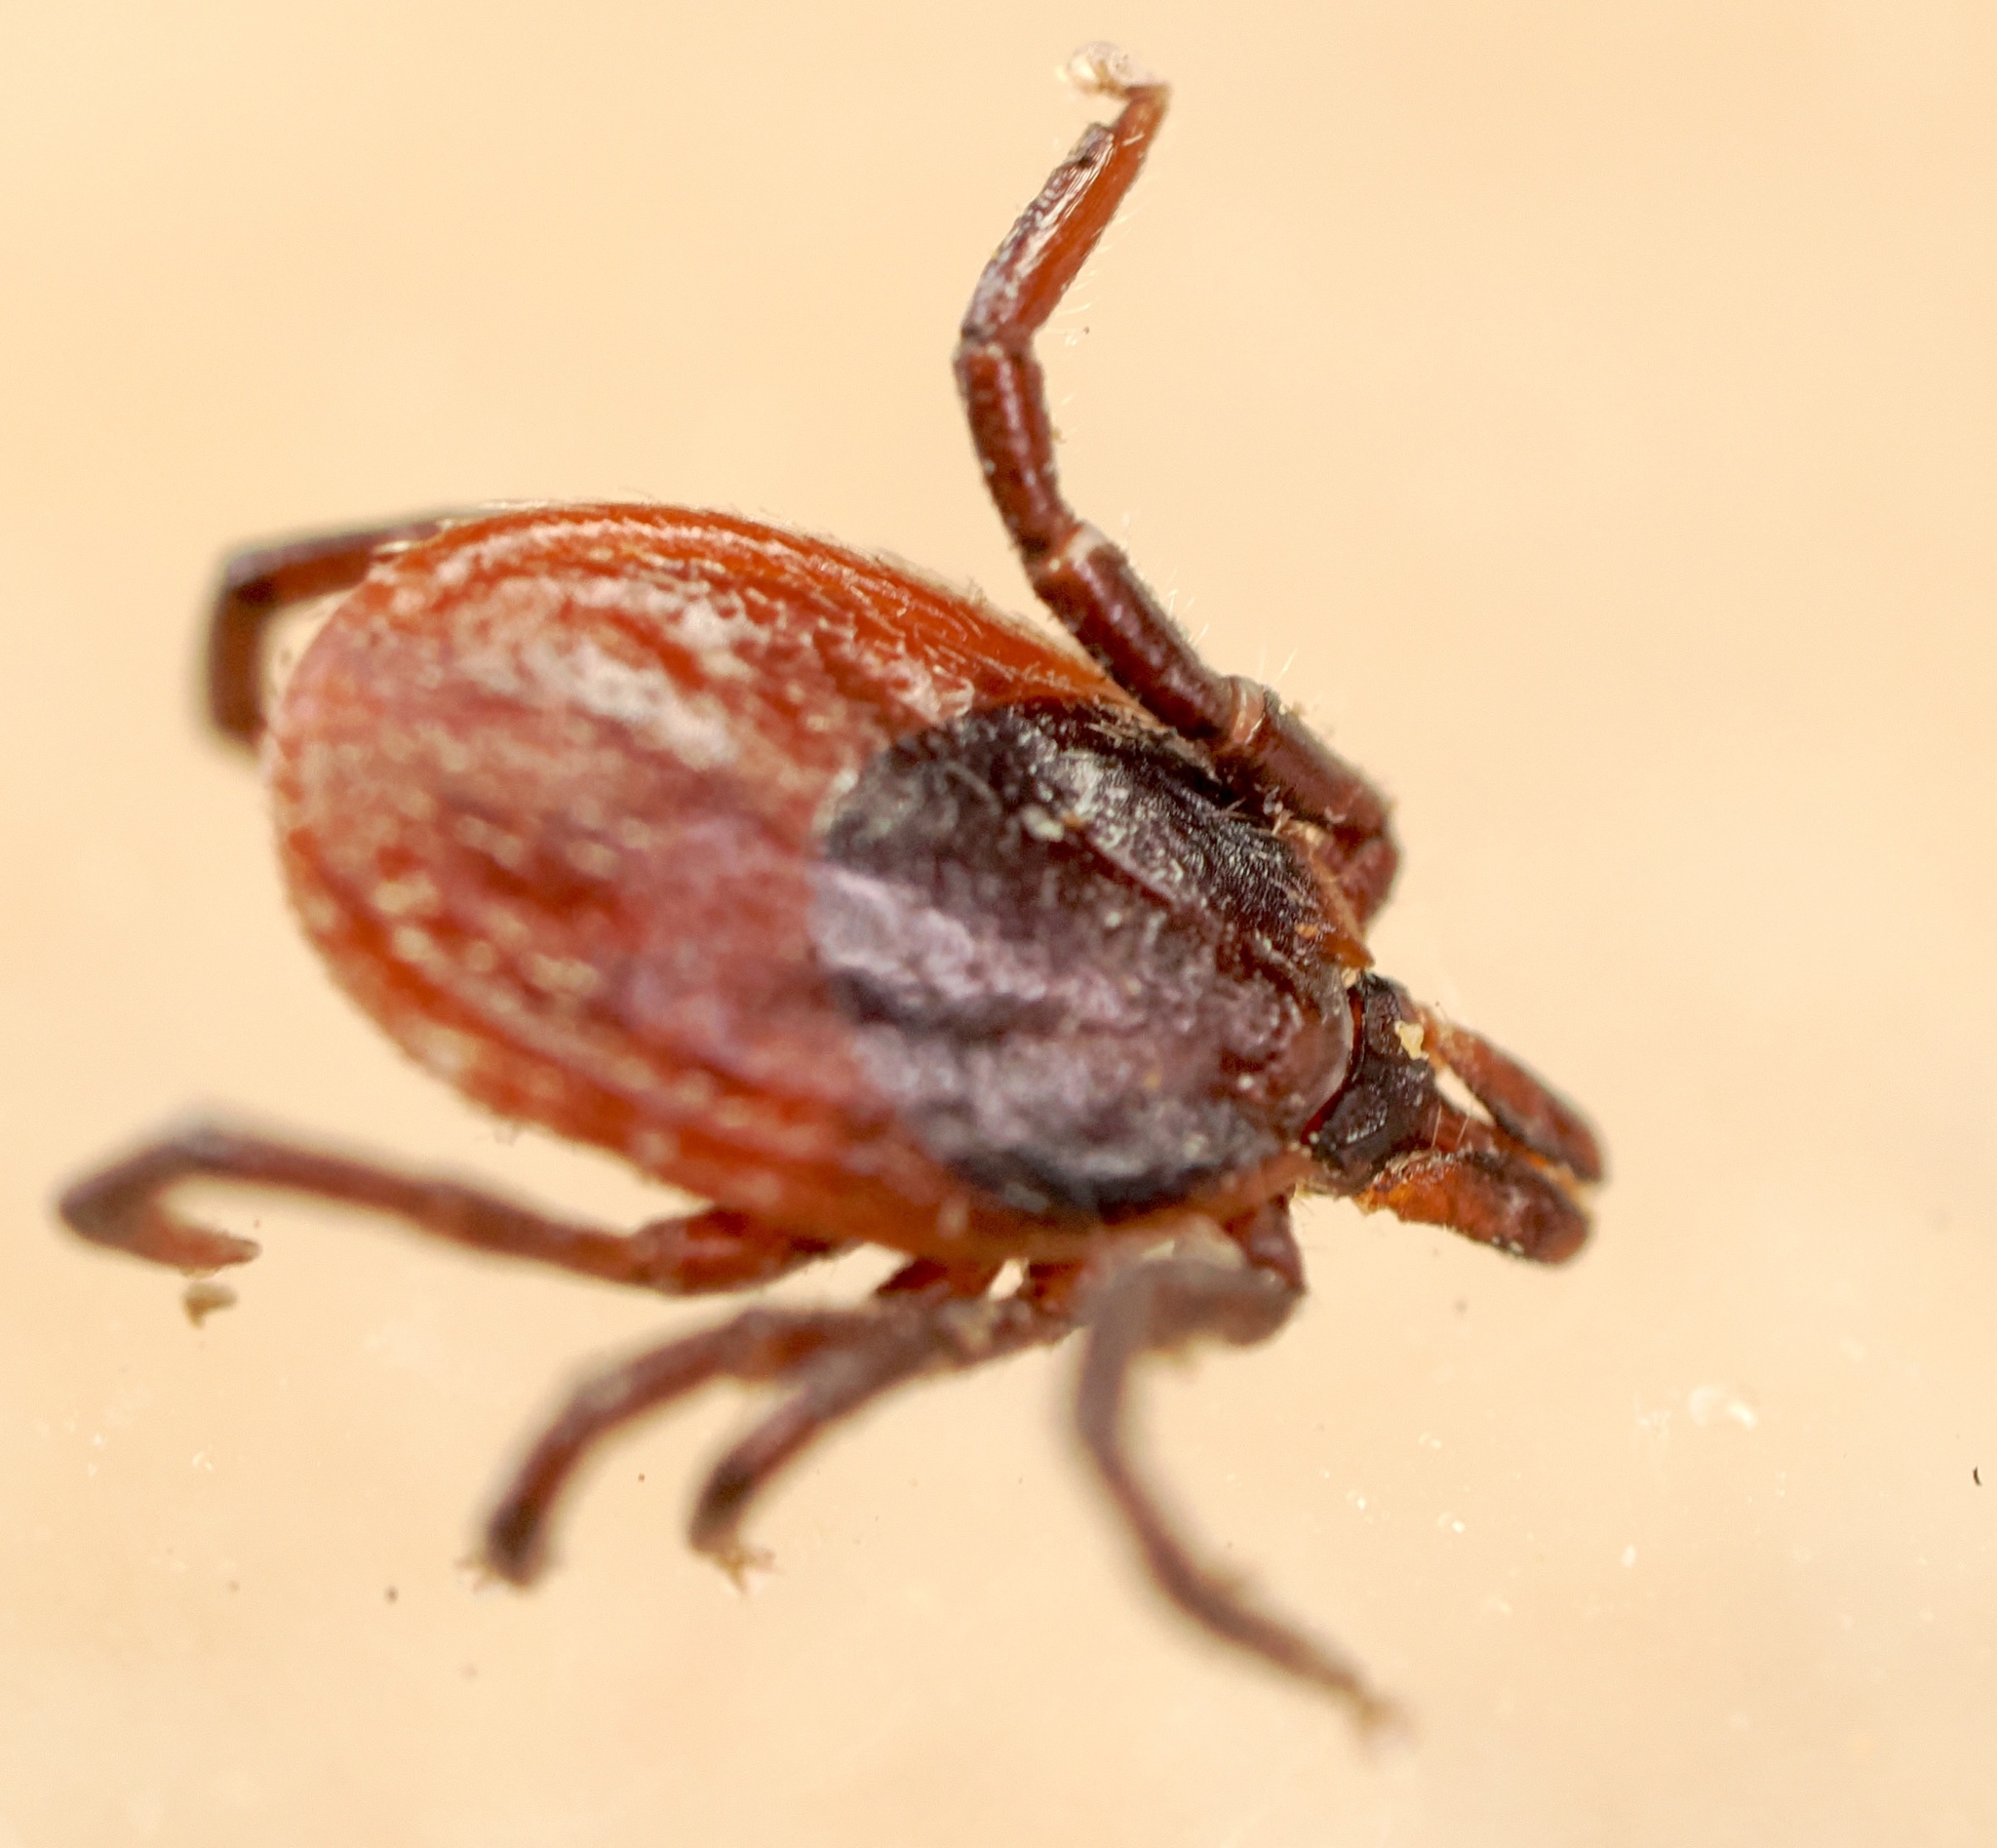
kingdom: Animalia
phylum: Arthropoda
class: Arachnida
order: Ixodida
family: Ixodidae
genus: Ixodes
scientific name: Ixodes pacificus
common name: California black-legged tick
